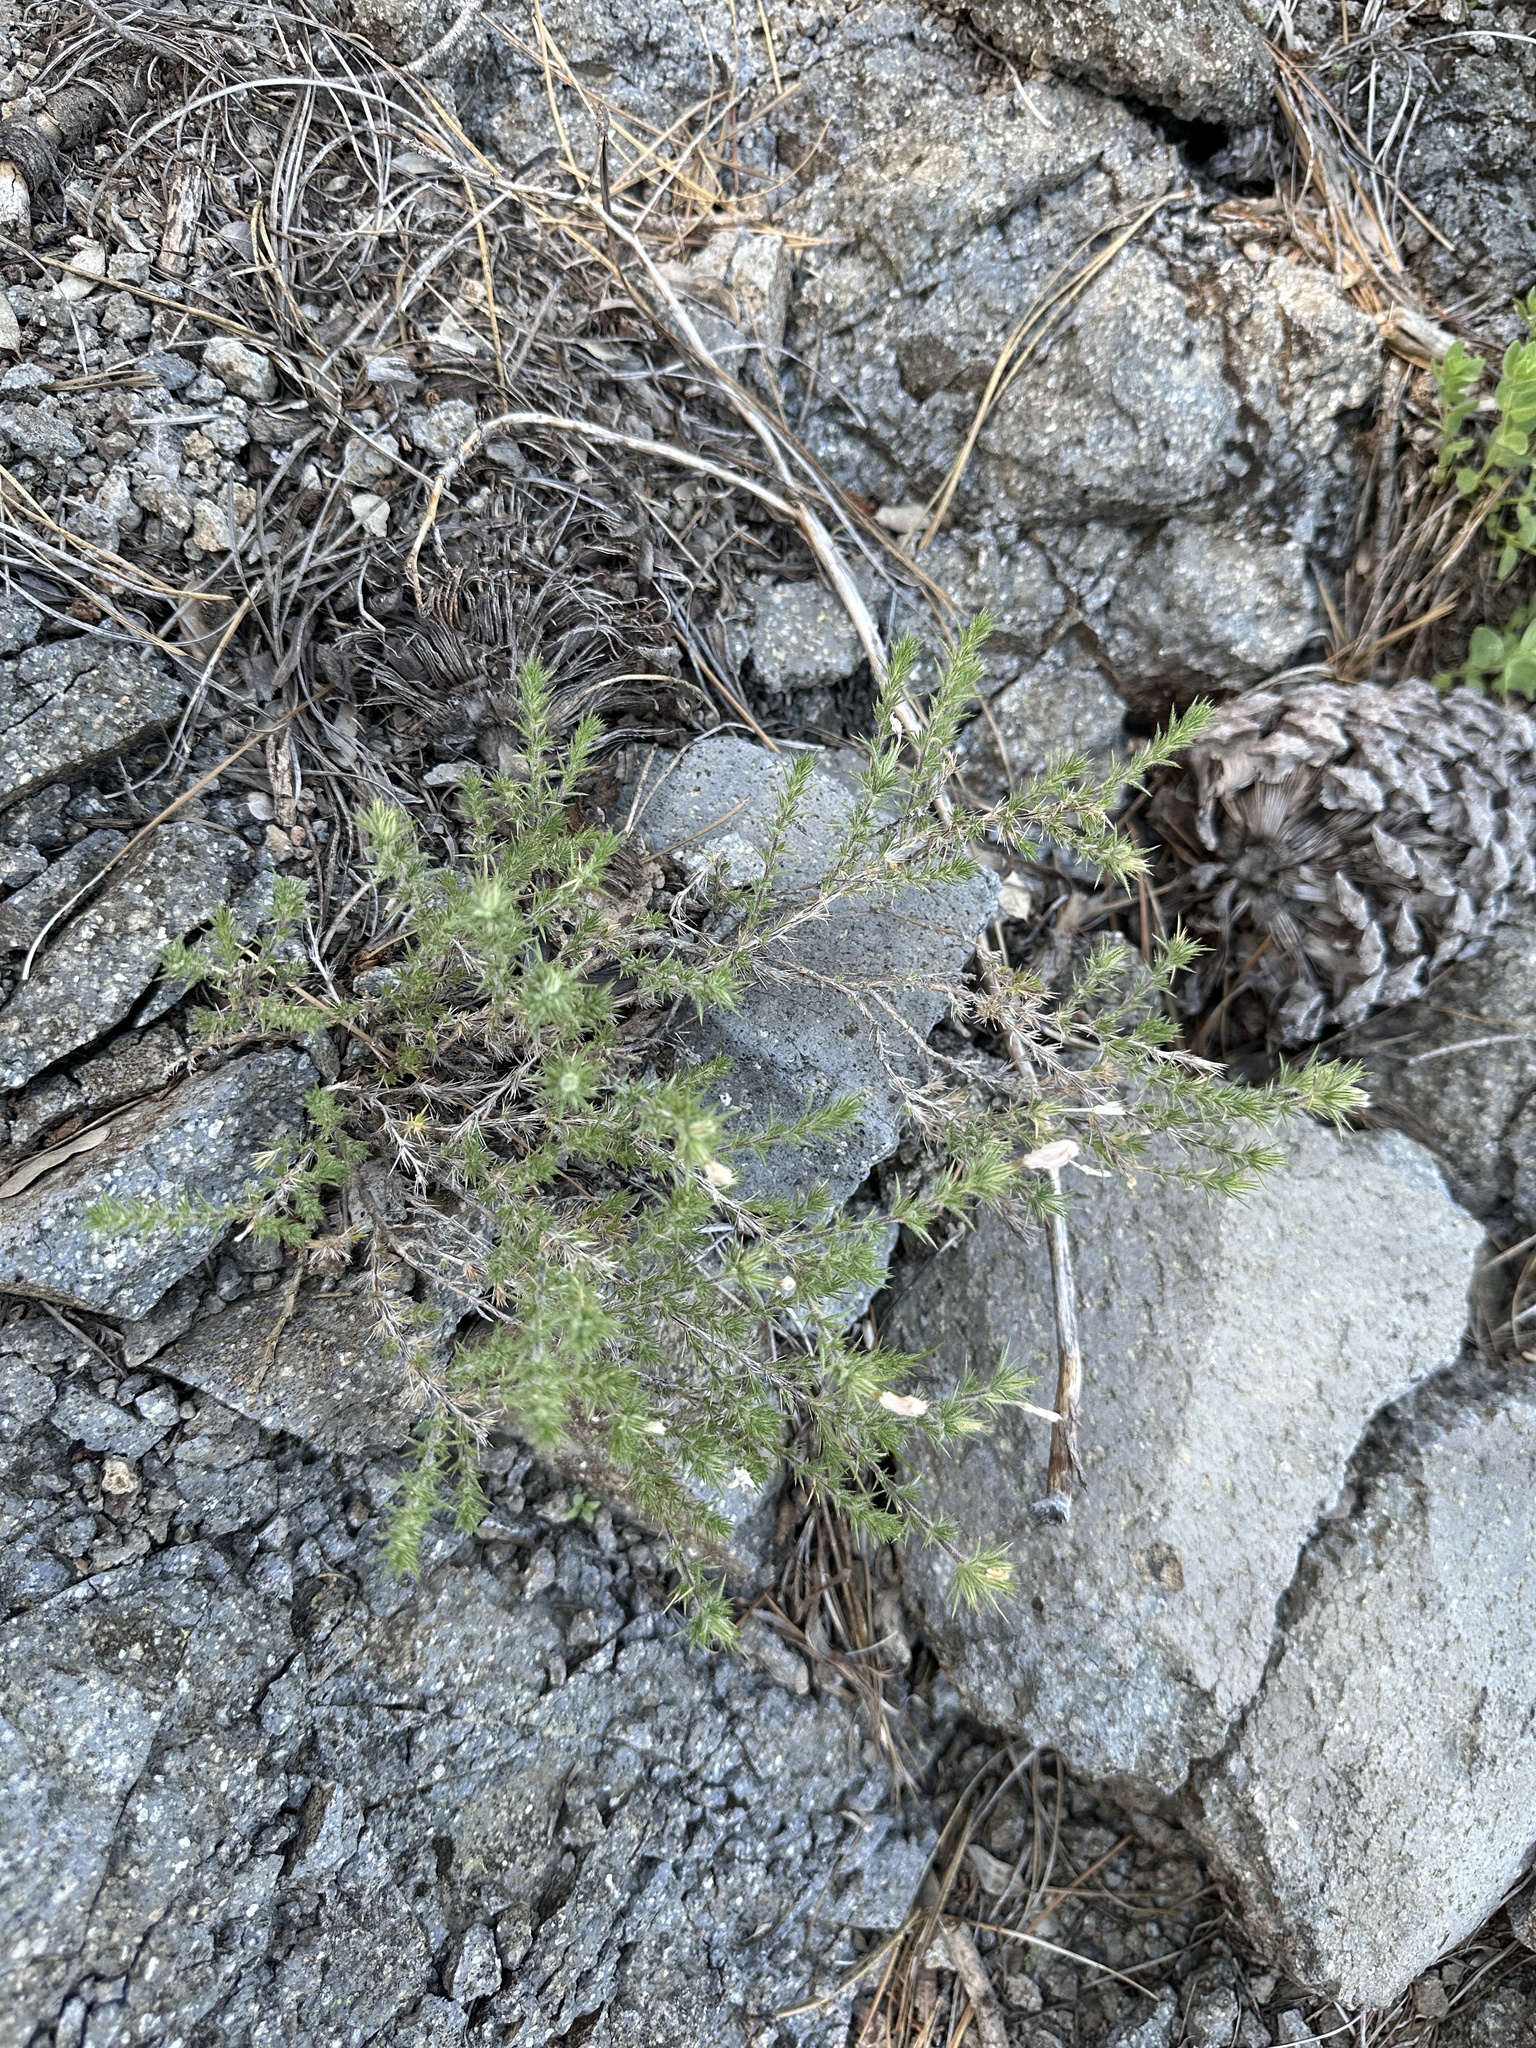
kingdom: Plantae
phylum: Tracheophyta
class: Magnoliopsida
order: Ericales
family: Polemoniaceae
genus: Linanthus
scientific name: Linanthus pungens
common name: Granite prickly phlox
